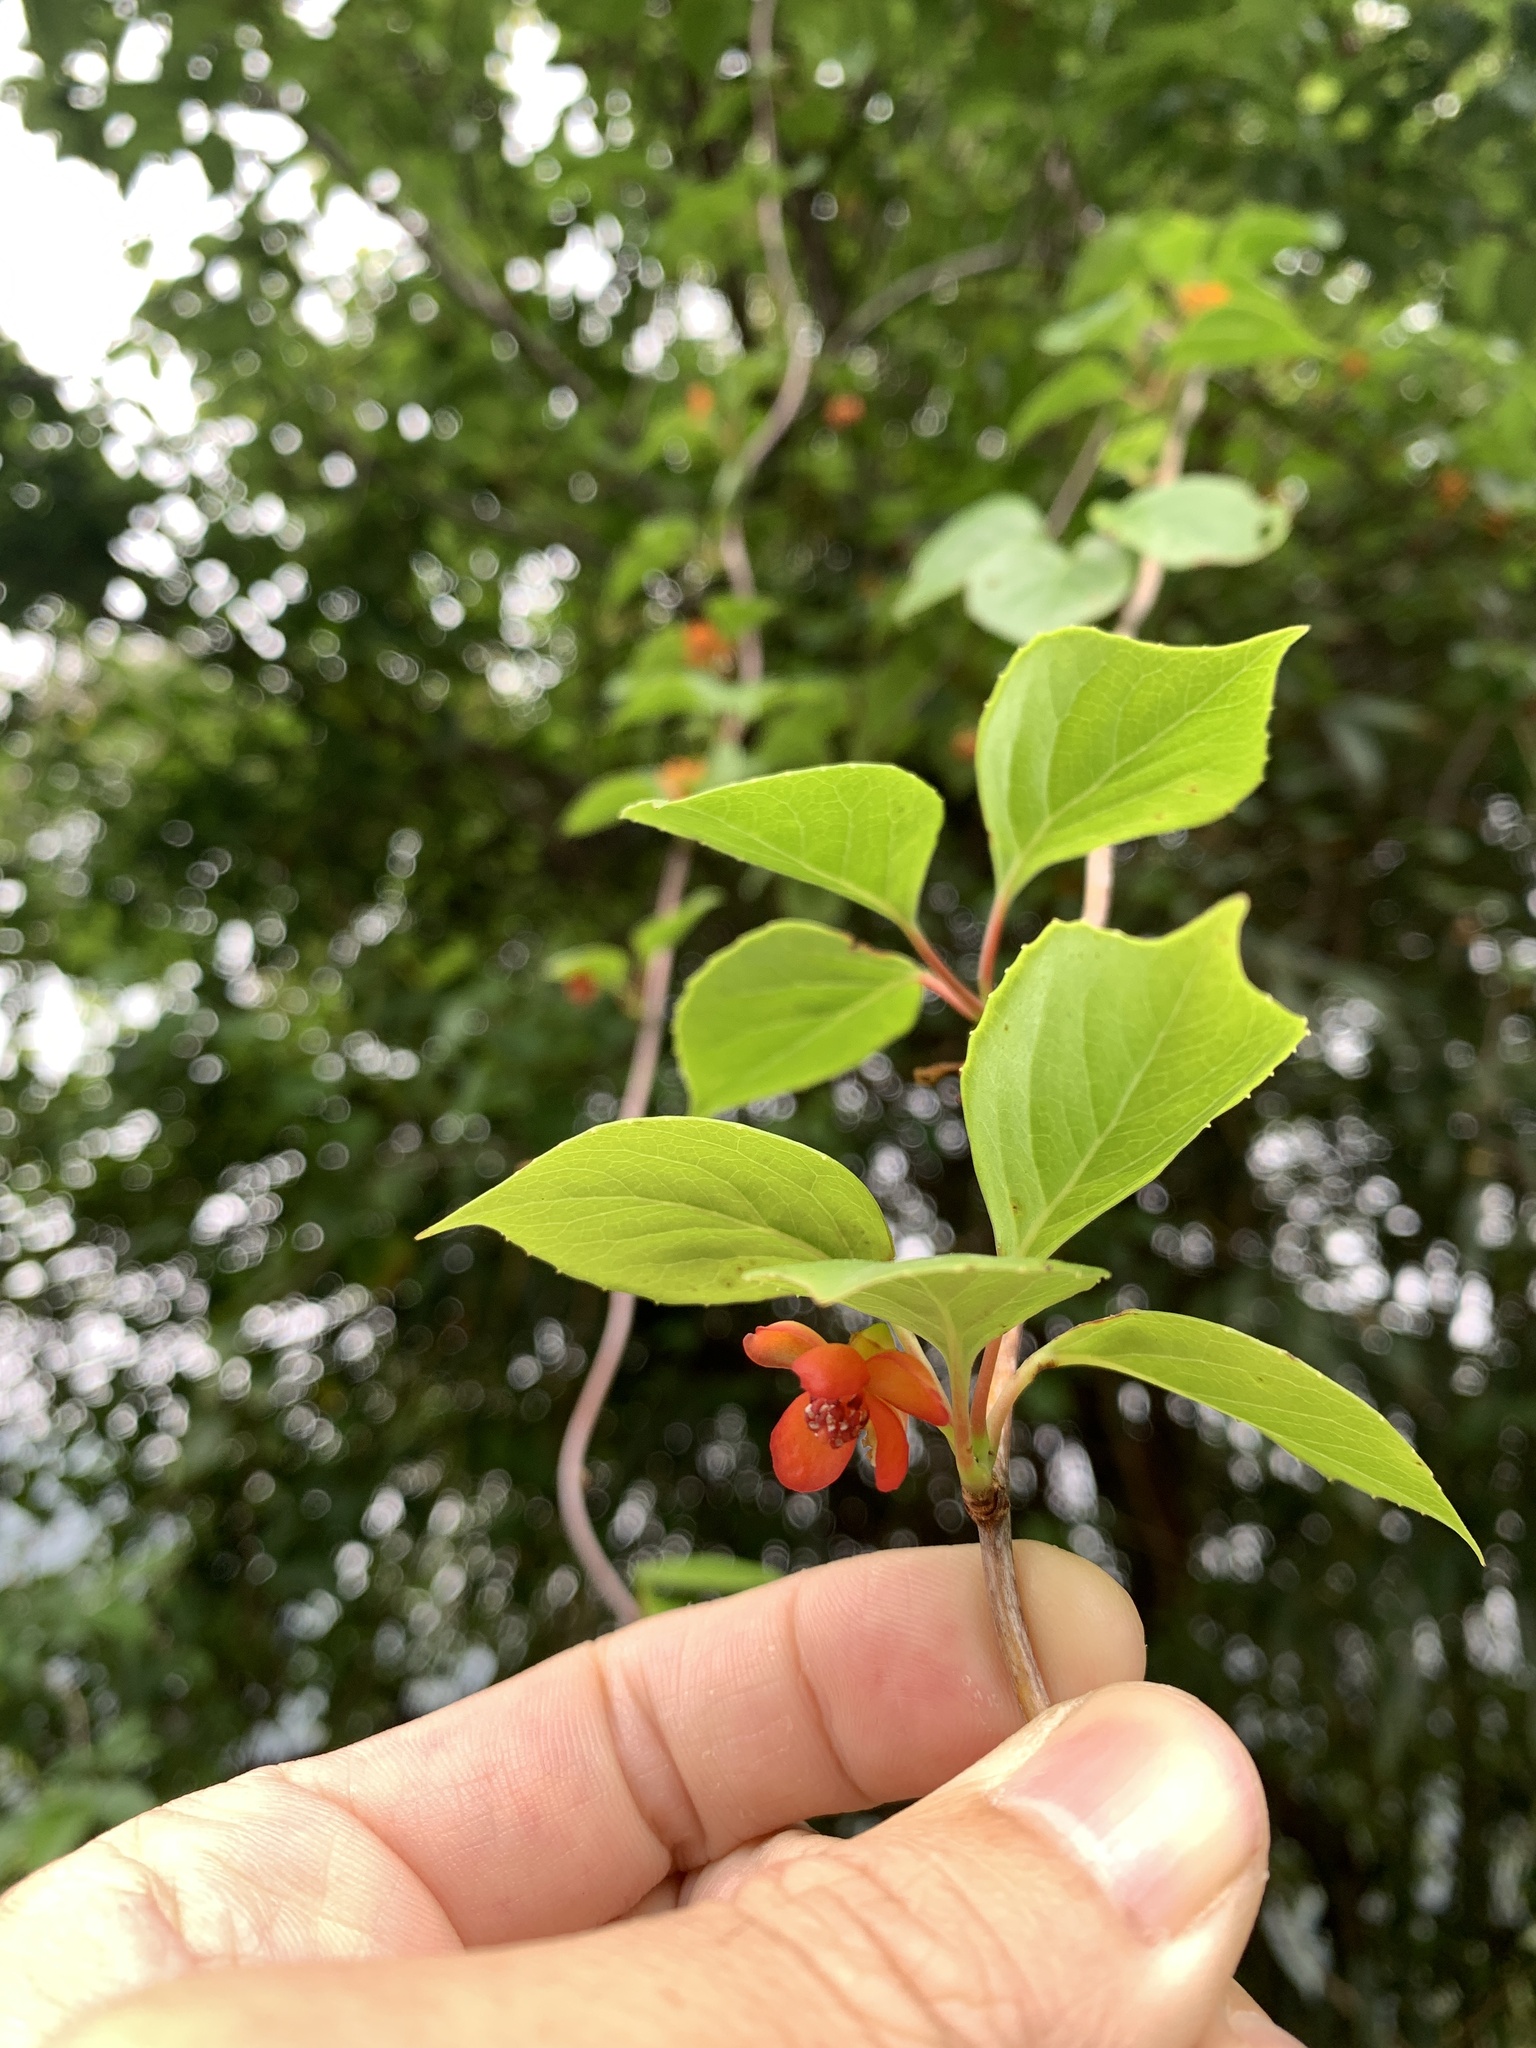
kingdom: Plantae
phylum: Tracheophyta
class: Magnoliopsida
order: Austrobaileyales
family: Schisandraceae
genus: Schisandra
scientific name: Schisandra arisanensis
